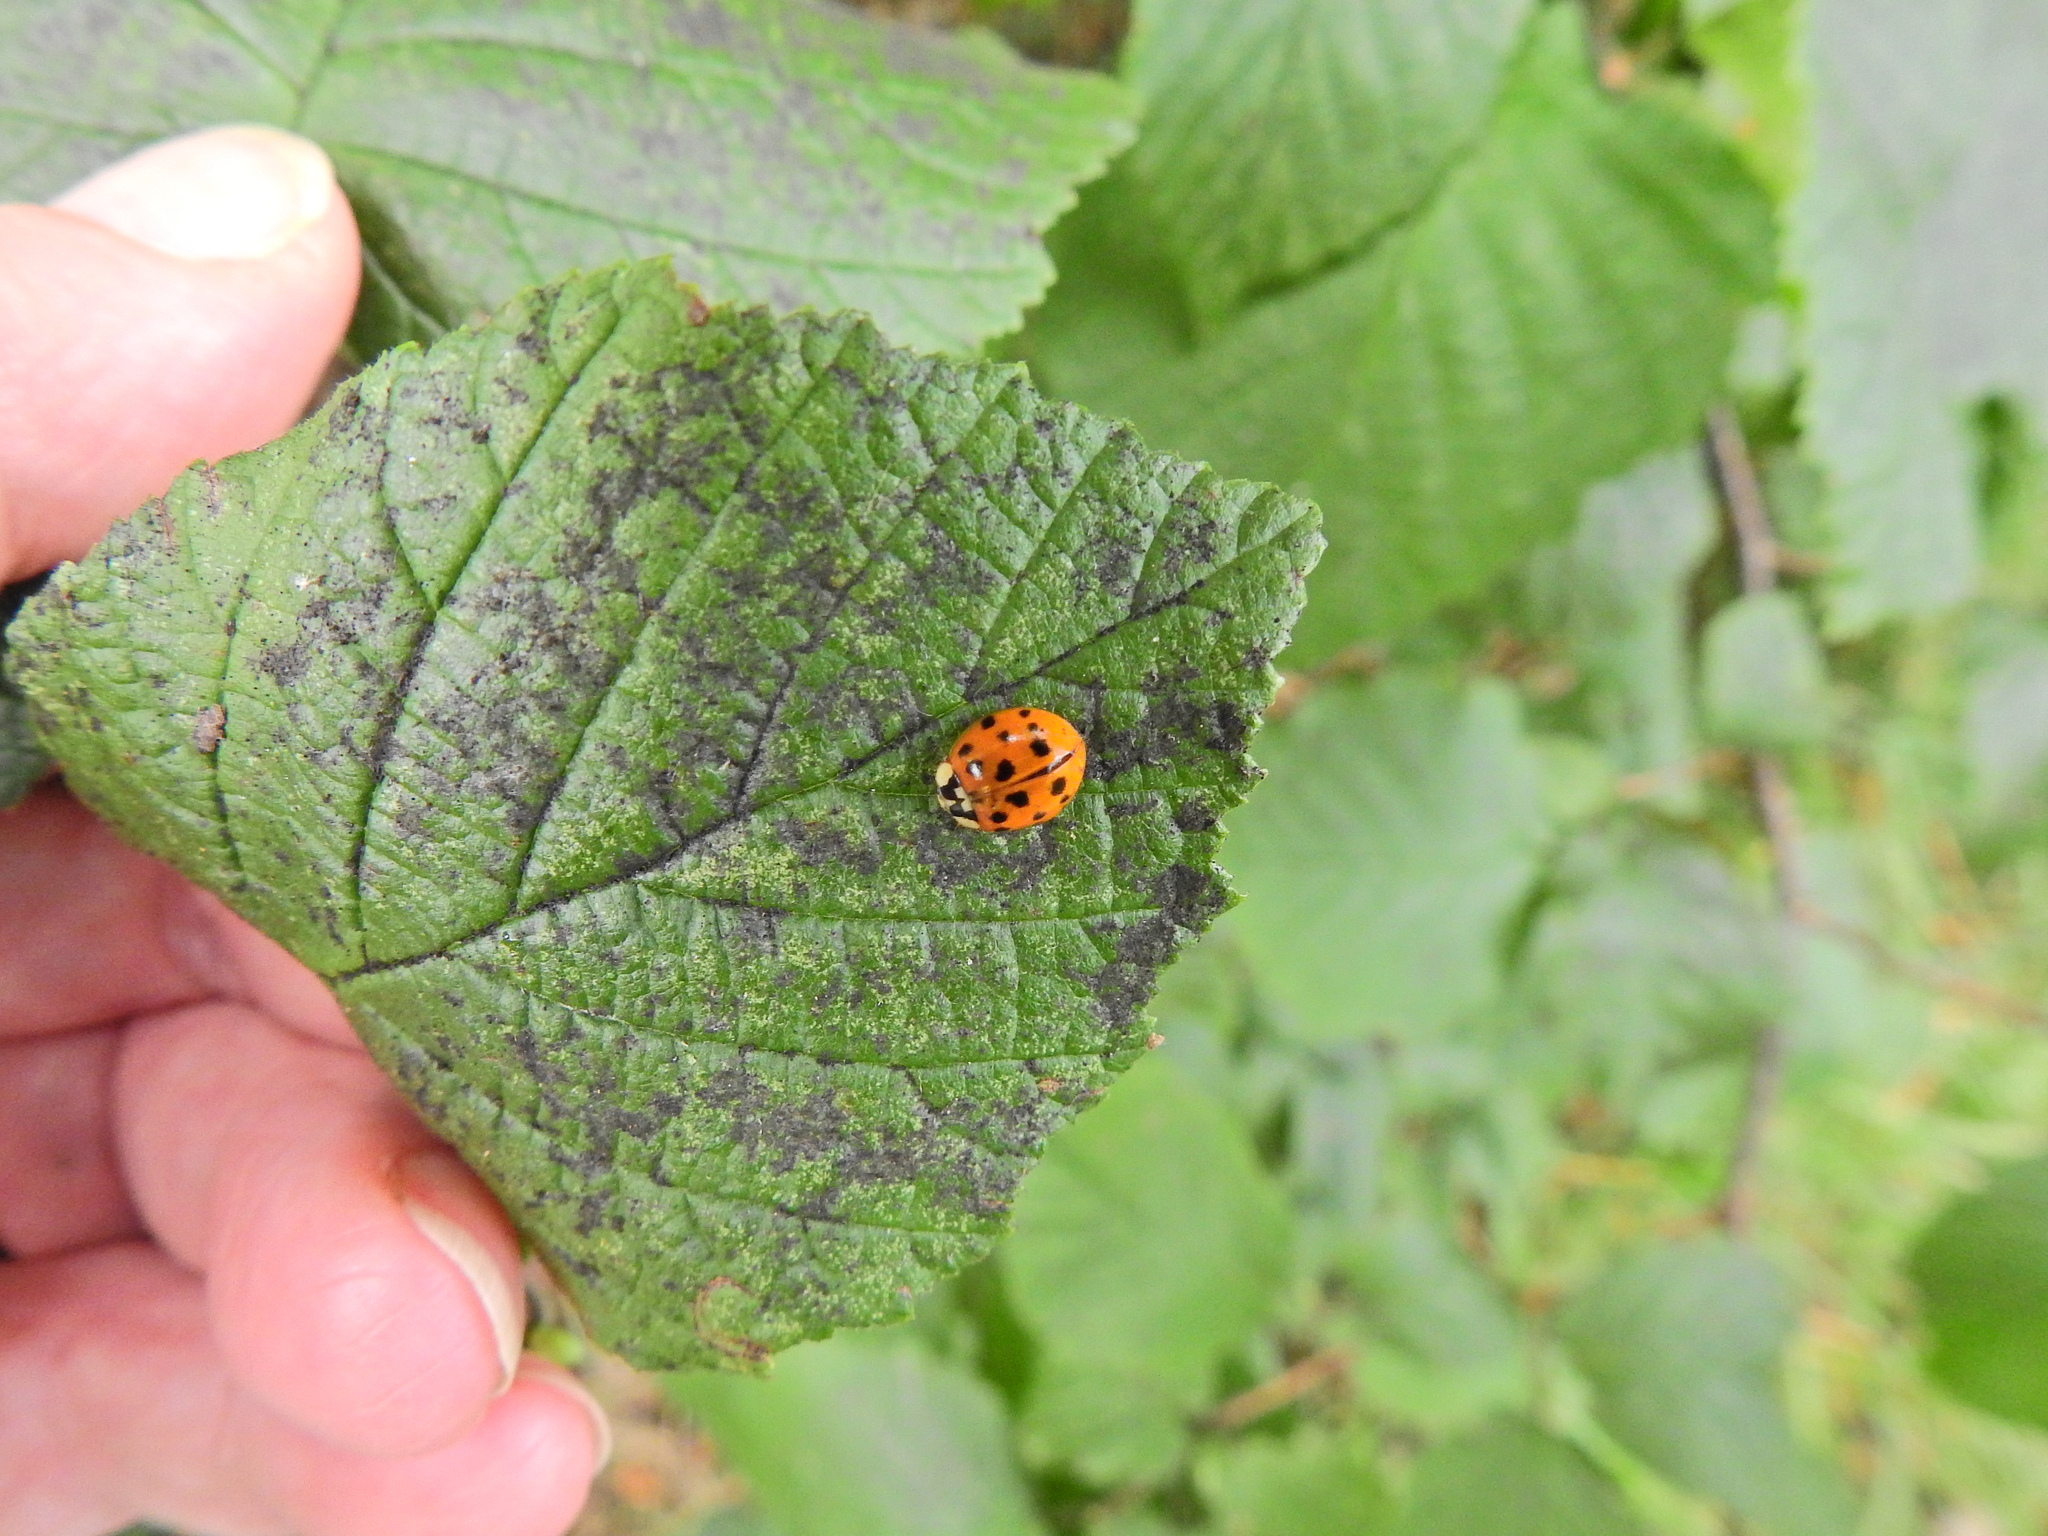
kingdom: Animalia
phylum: Arthropoda
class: Insecta
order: Coleoptera
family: Coccinellidae
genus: Harmonia
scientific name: Harmonia axyridis
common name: Harlequin ladybird
